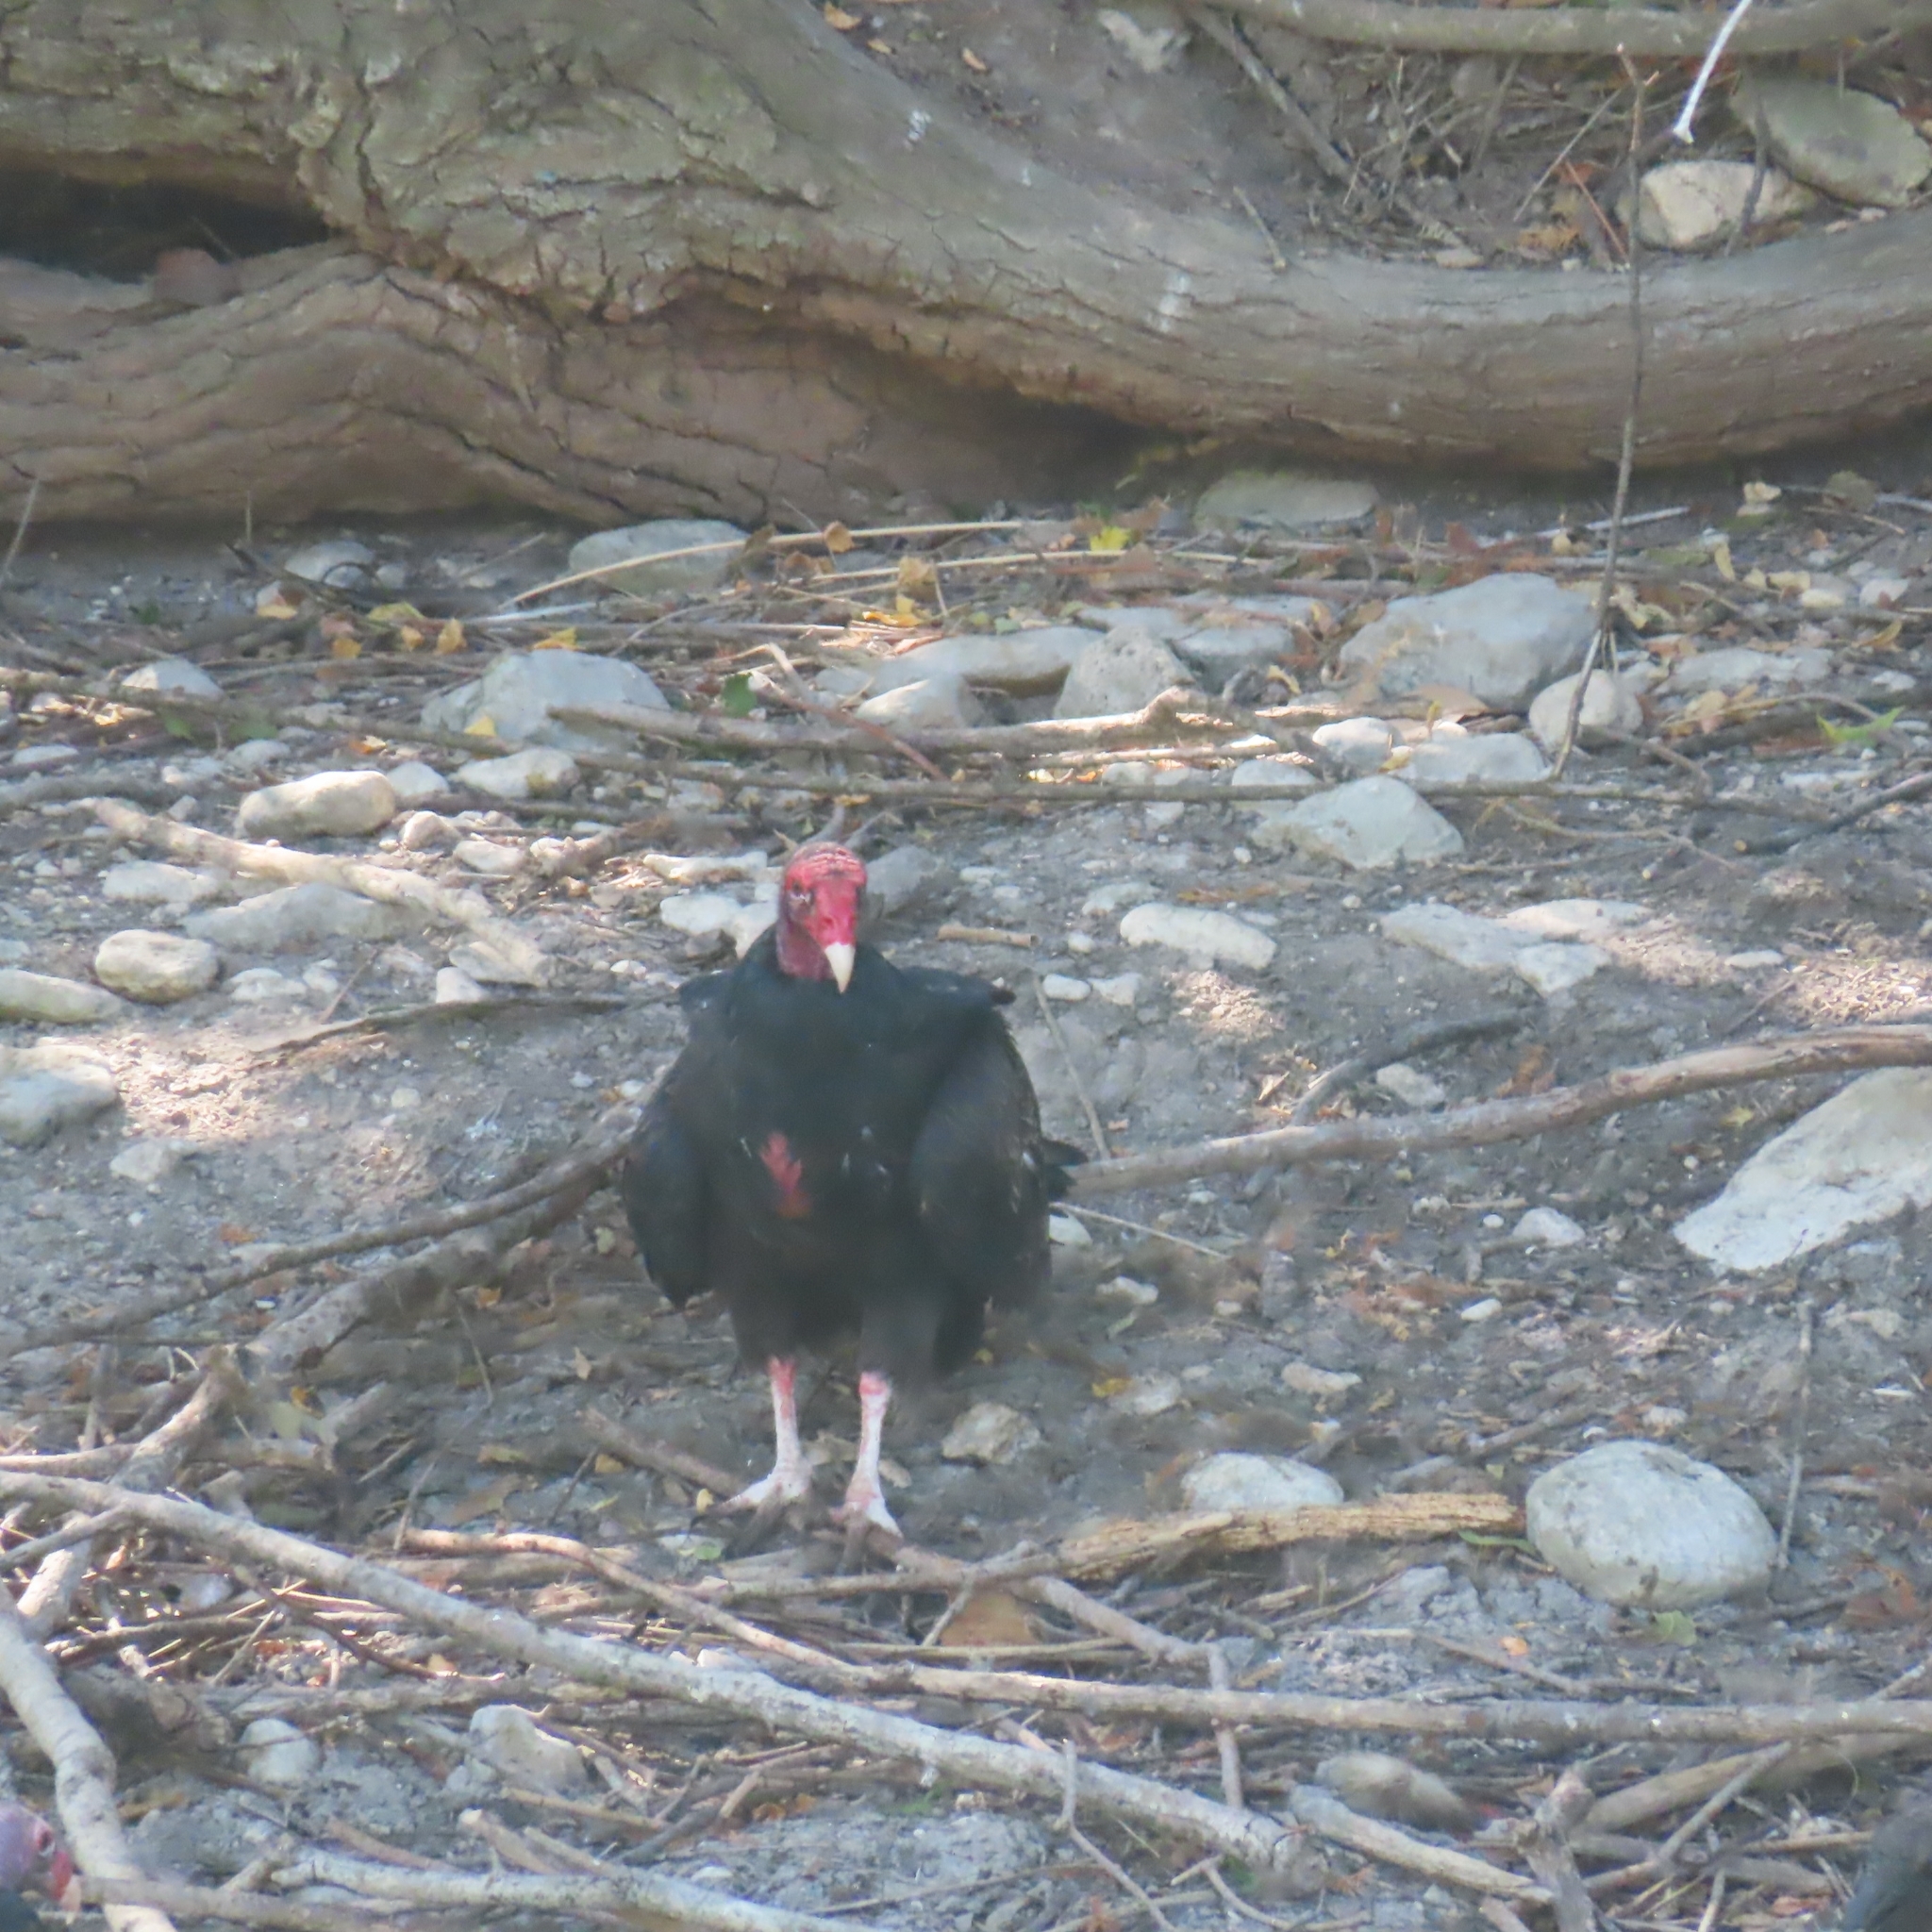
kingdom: Animalia
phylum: Chordata
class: Aves
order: Accipitriformes
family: Cathartidae
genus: Cathartes
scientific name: Cathartes aura
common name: Turkey vulture
